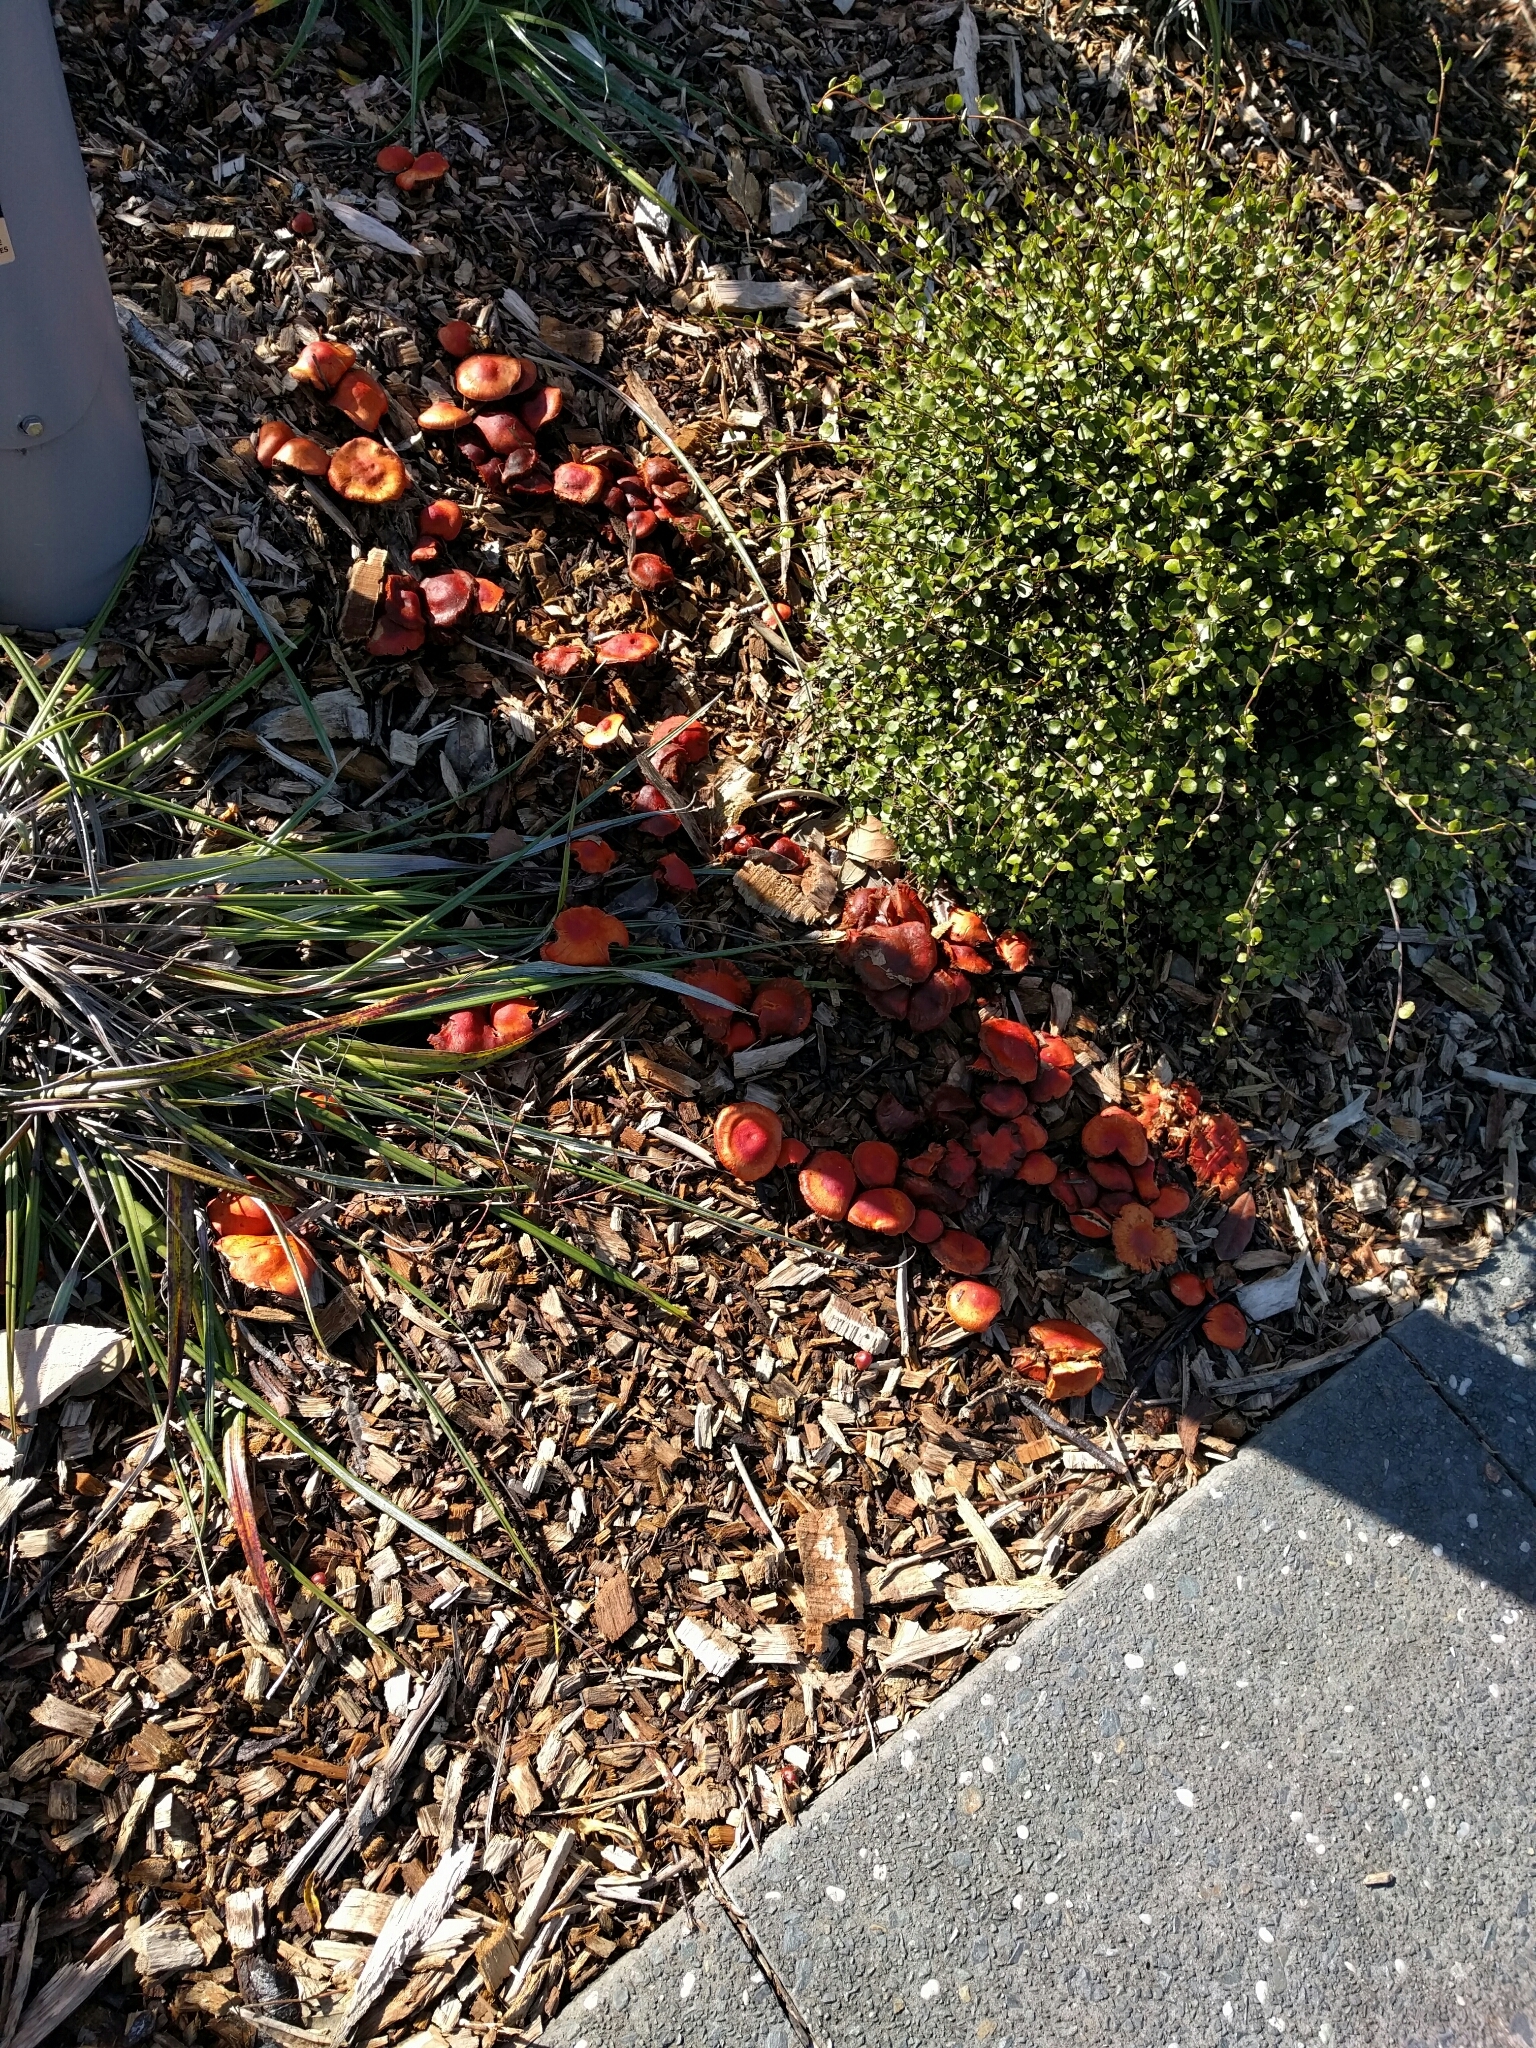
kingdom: Fungi
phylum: Basidiomycota
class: Agaricomycetes
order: Agaricales
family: Strophariaceae
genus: Leratiomyces
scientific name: Leratiomyces ceres
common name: Redlead roundhead
